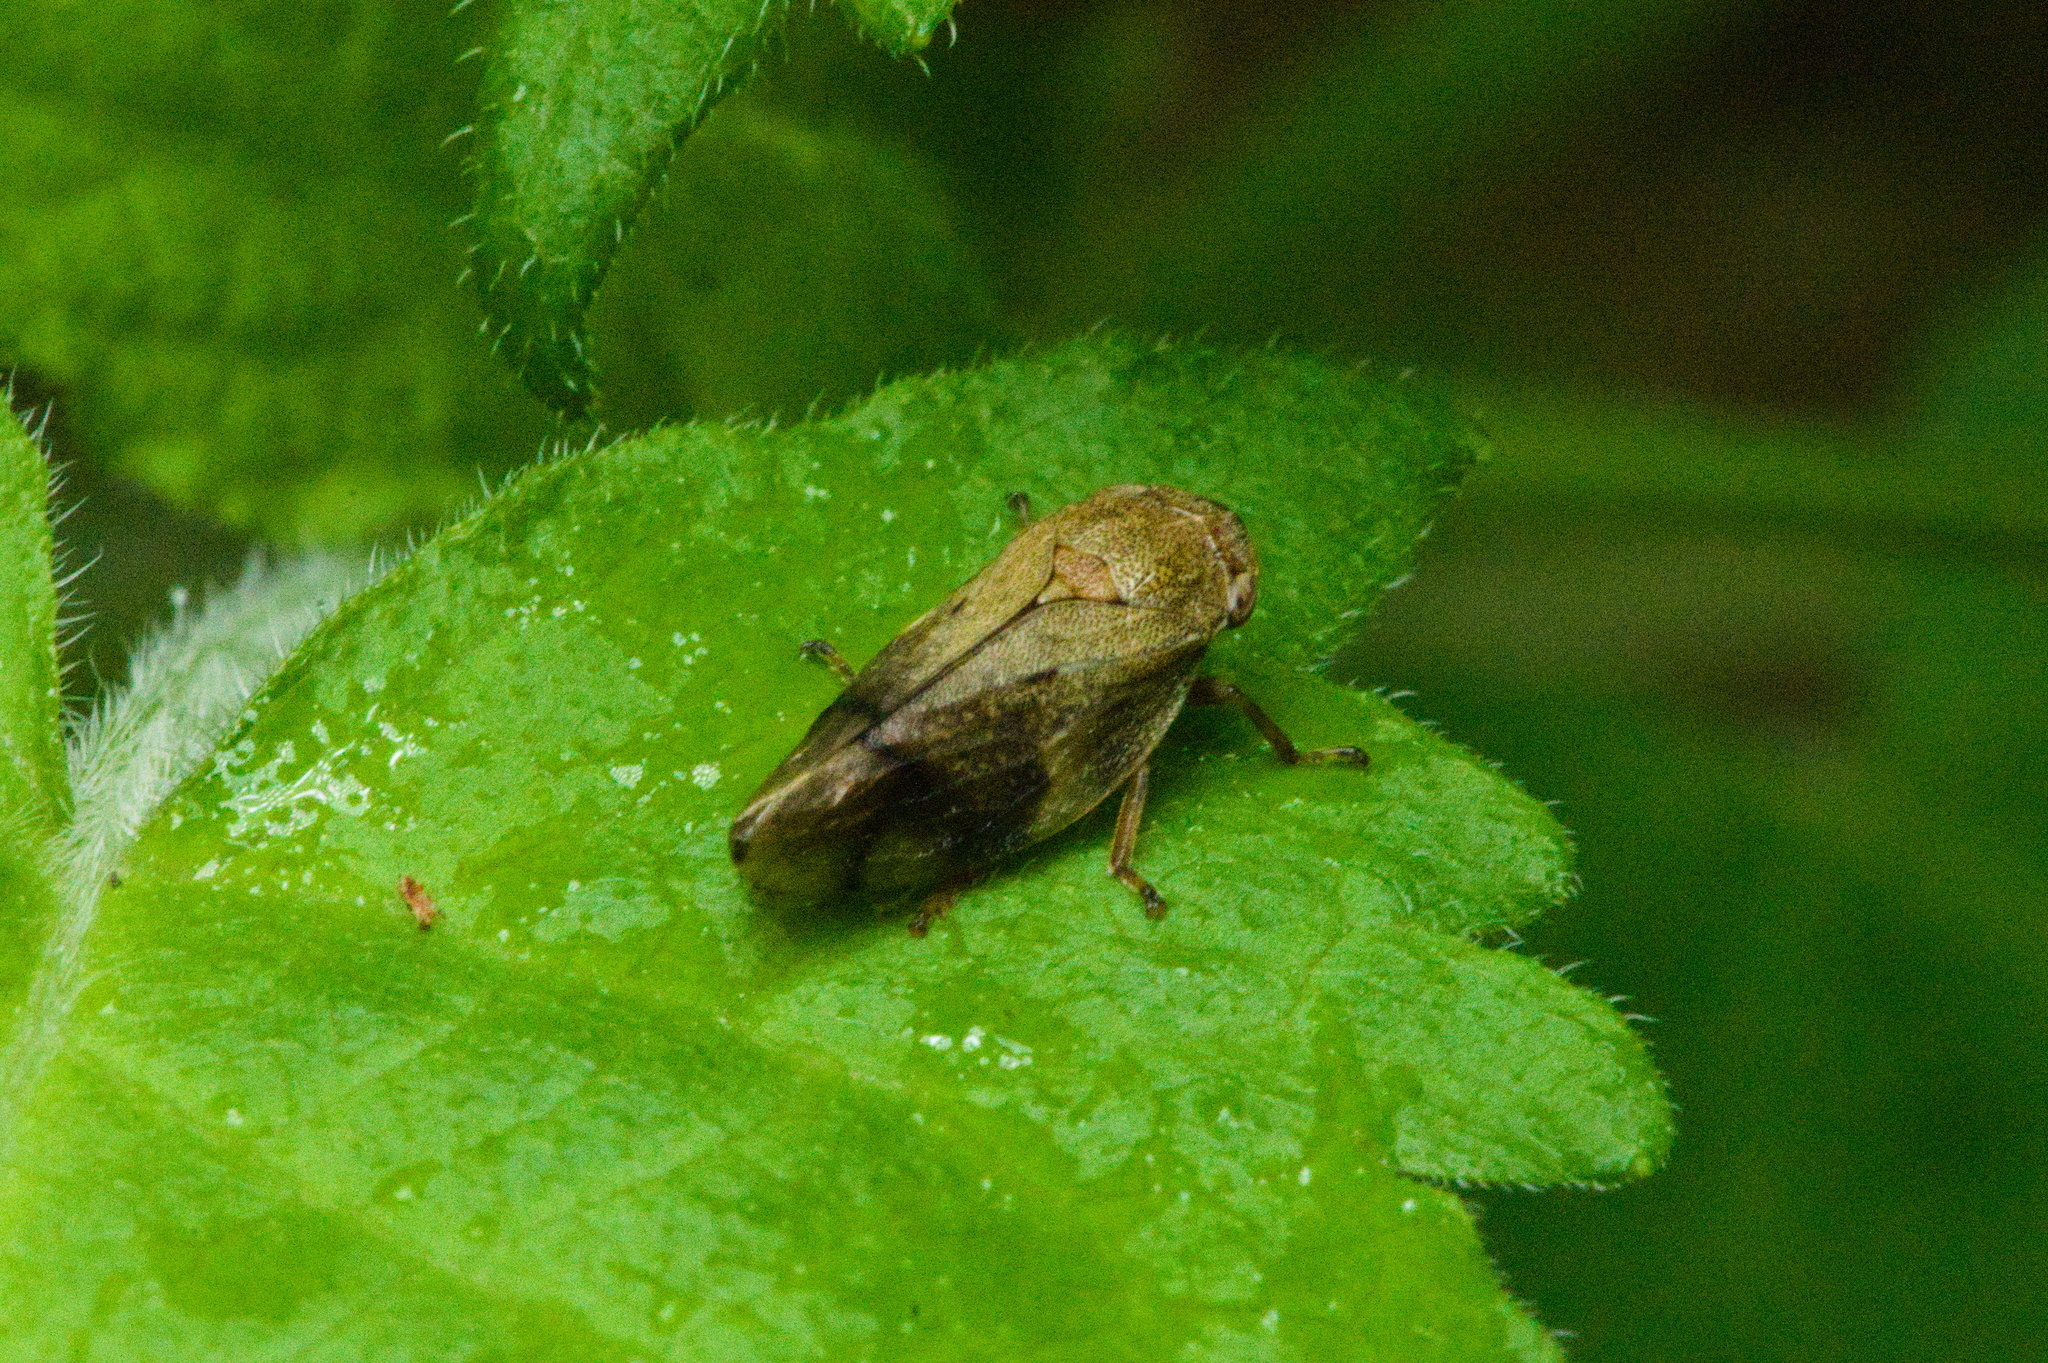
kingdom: Animalia
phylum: Arthropoda
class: Insecta
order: Hemiptera
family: Aphrophoridae
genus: Aphrophora
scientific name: Aphrophora alni
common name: European alder spittlebug
